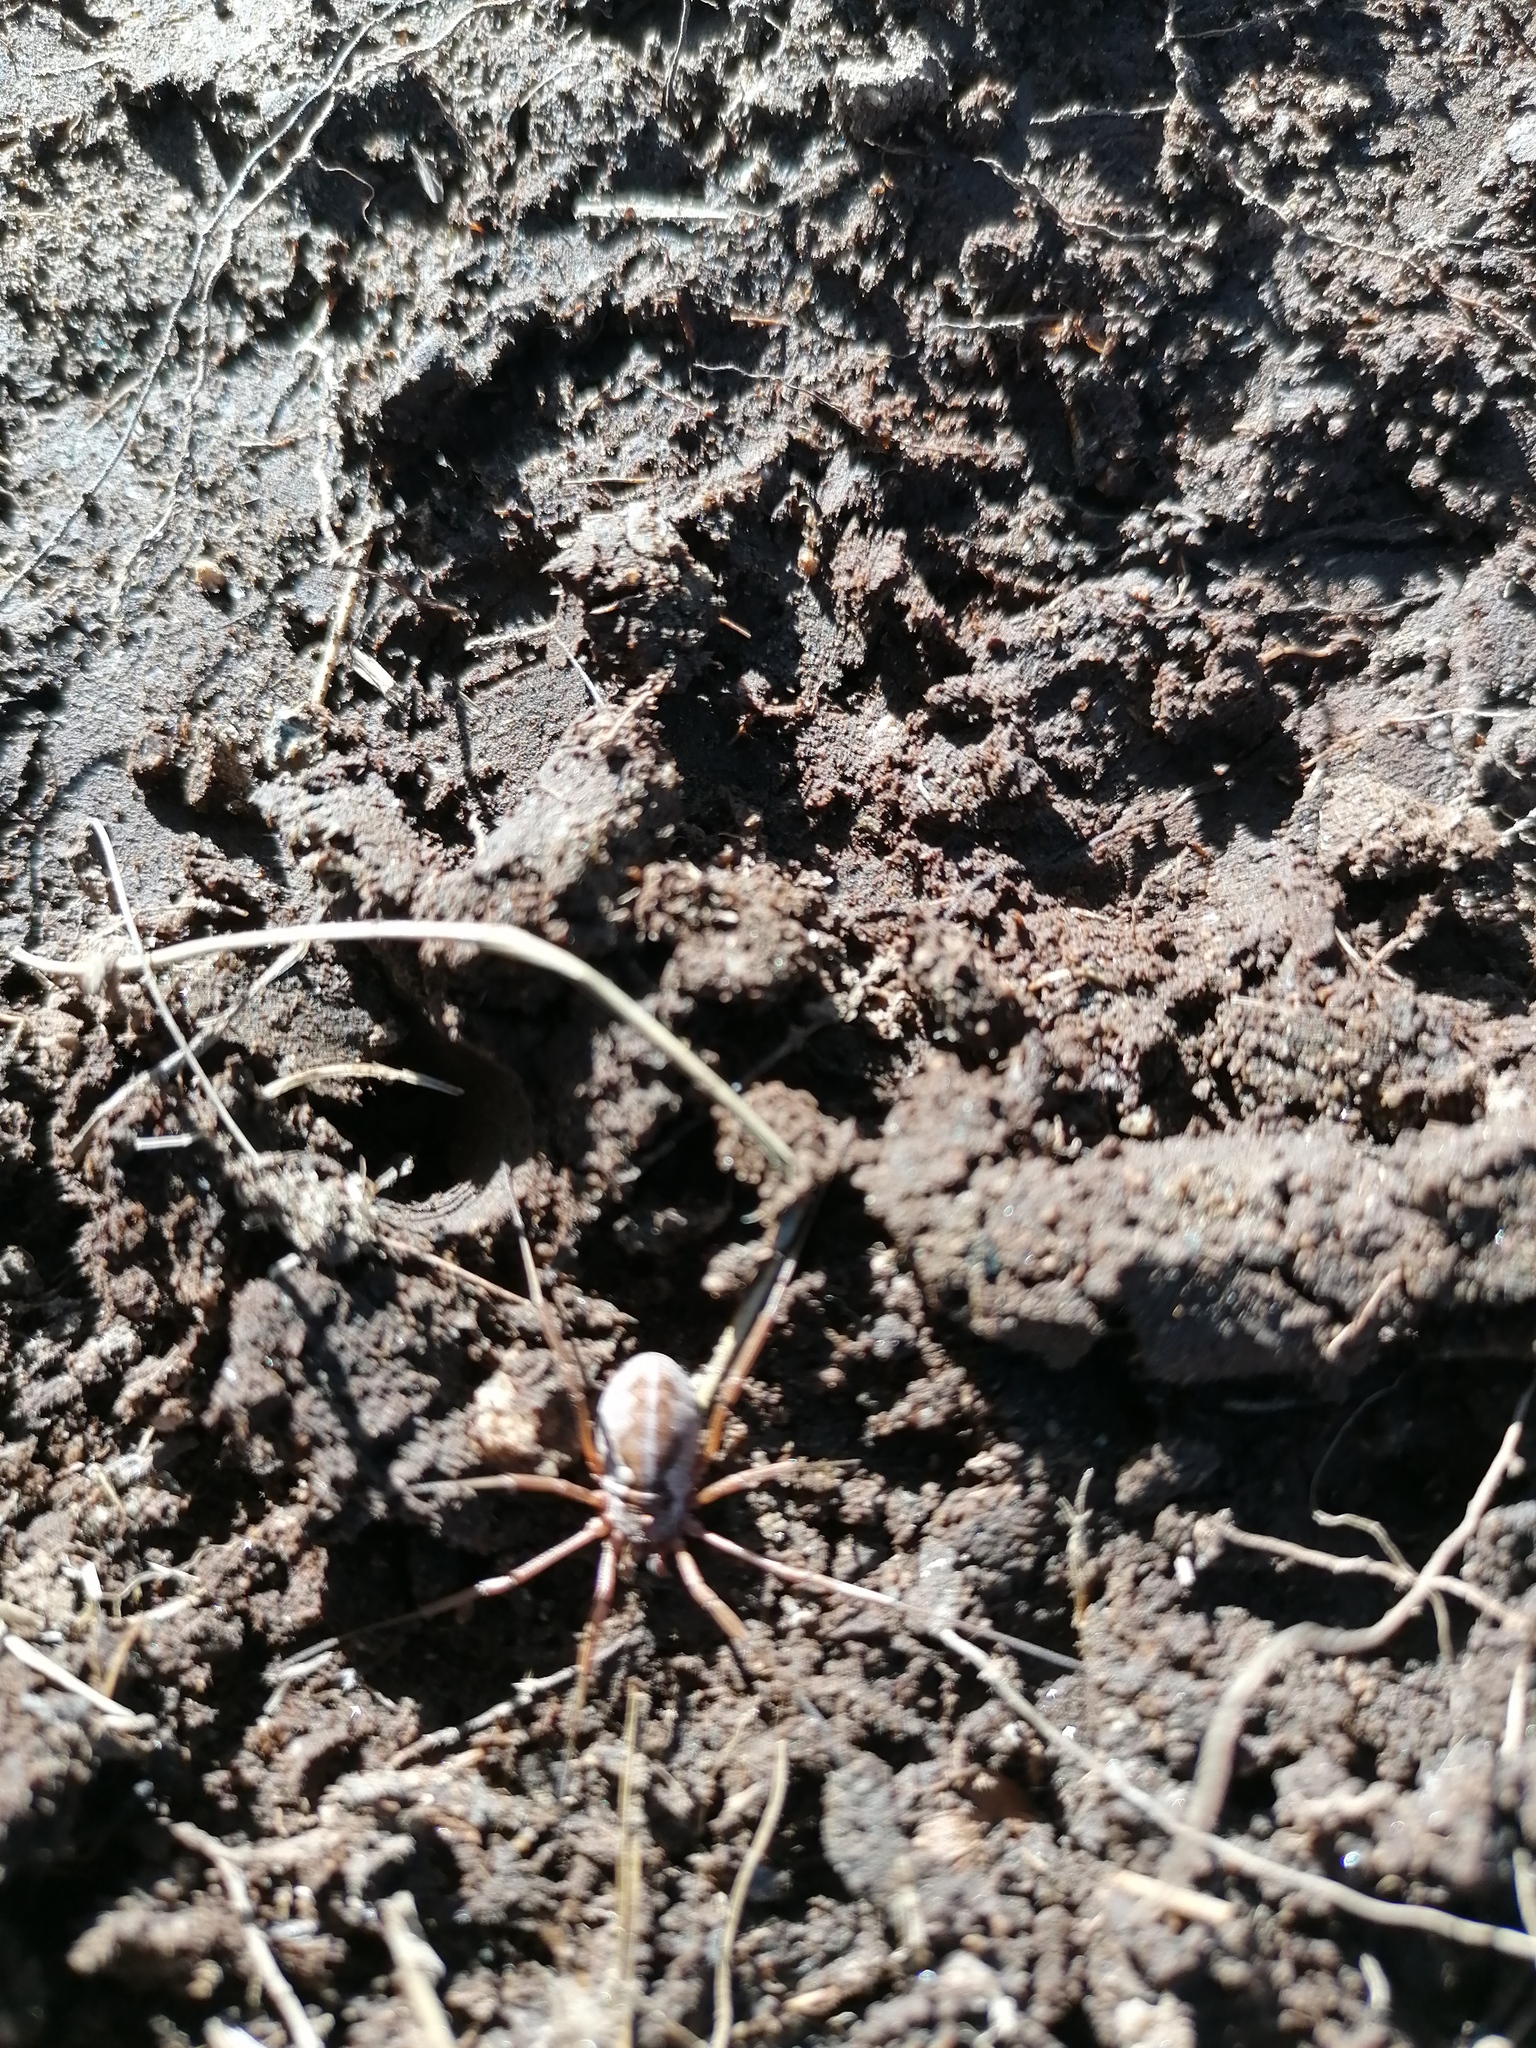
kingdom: Animalia
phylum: Arthropoda
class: Arachnida
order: Opiliones
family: Phalangiidae
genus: Mitopus
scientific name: Mitopus morio
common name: Saddleback harvestman
